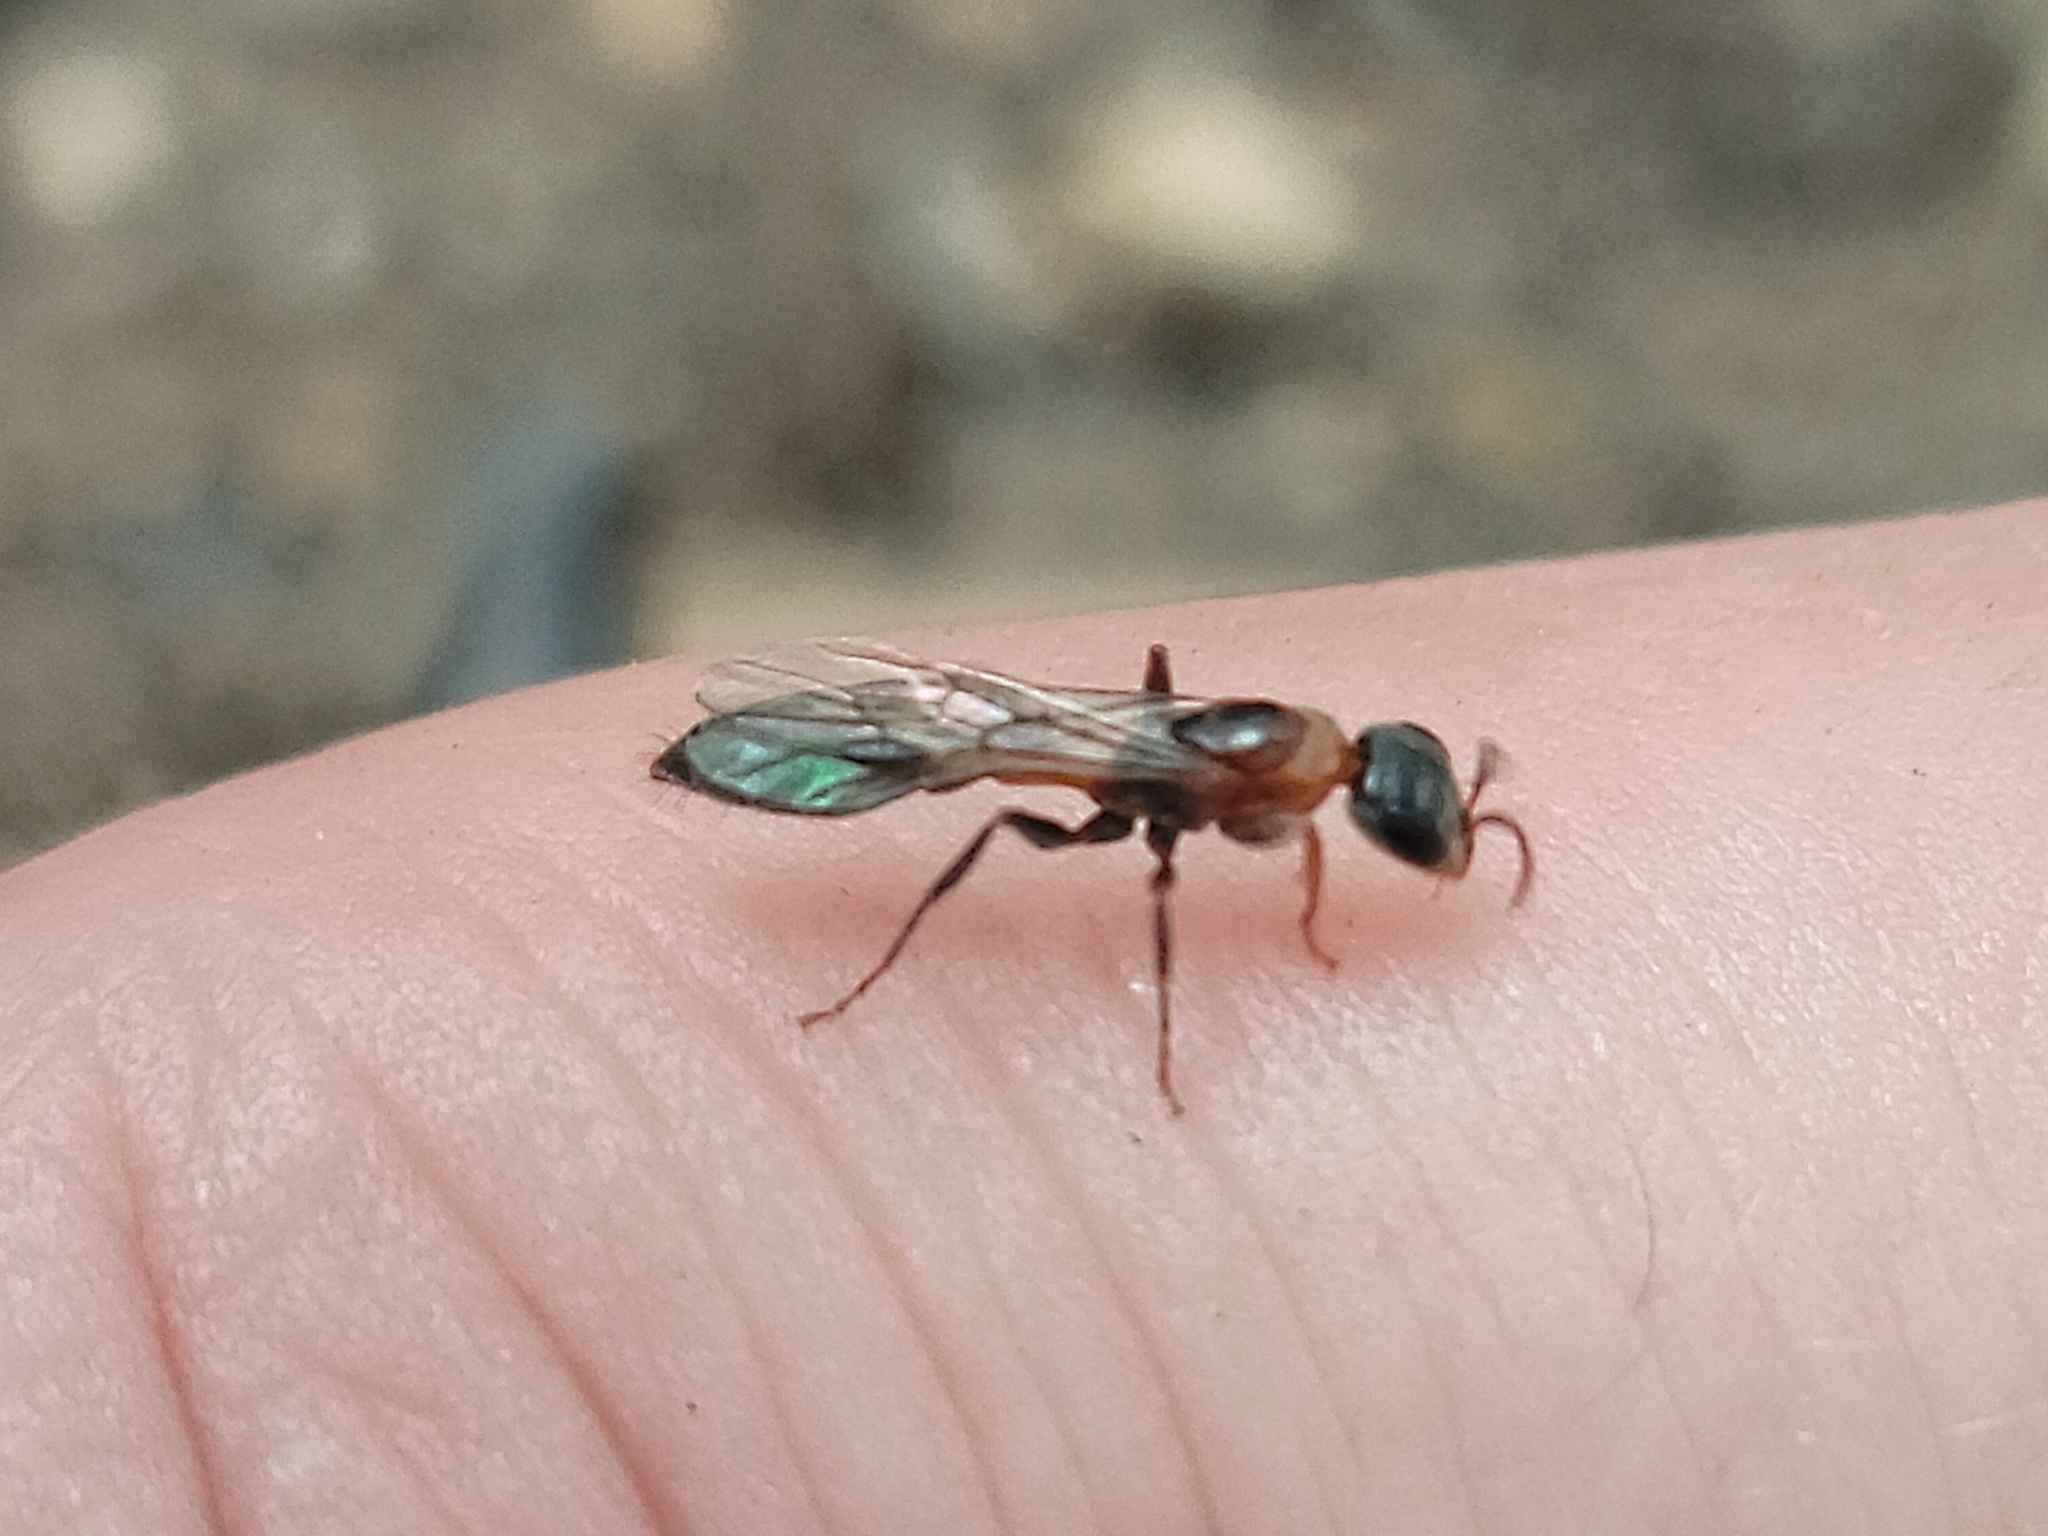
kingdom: Animalia
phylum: Arthropoda
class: Insecta
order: Hymenoptera
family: Formicidae
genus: Pseudomyrmex
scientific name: Pseudomyrmex gracilis
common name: Graceful twig ant
